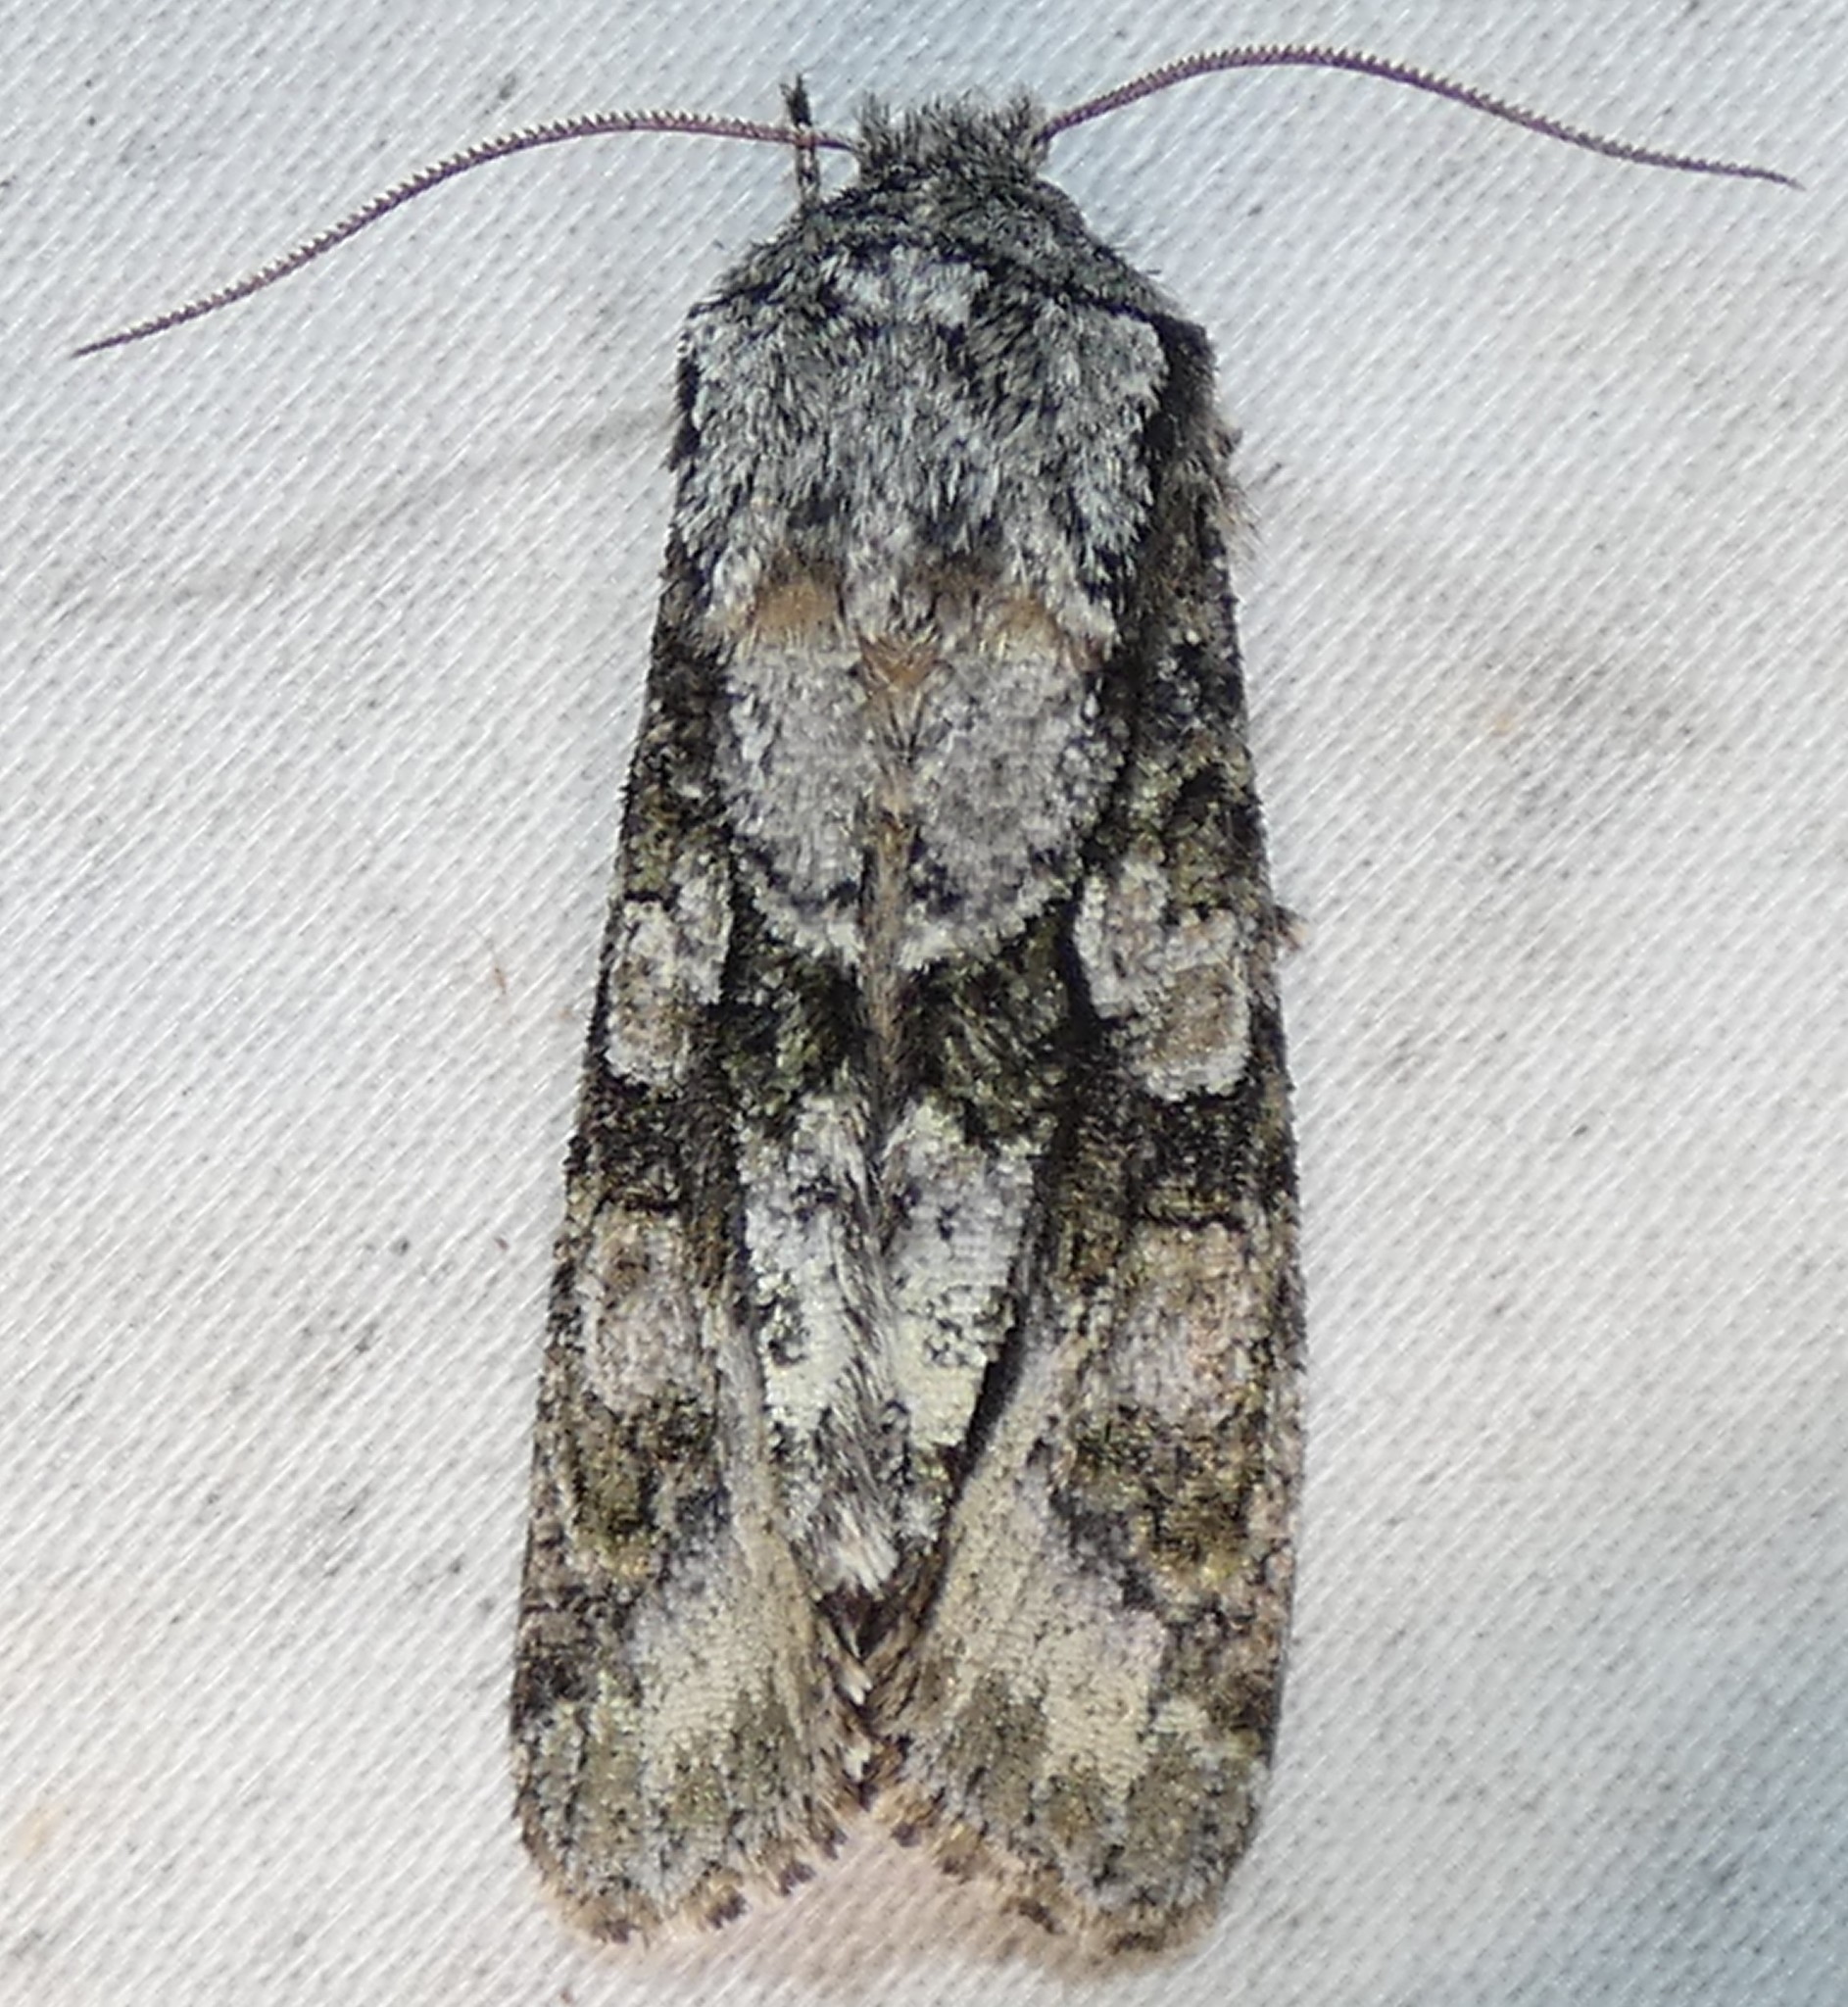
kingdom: Animalia
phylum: Arthropoda
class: Insecta
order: Lepidoptera
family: Noctuidae
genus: Psaphida
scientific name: Psaphida resumens
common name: Figure-eight sallow
